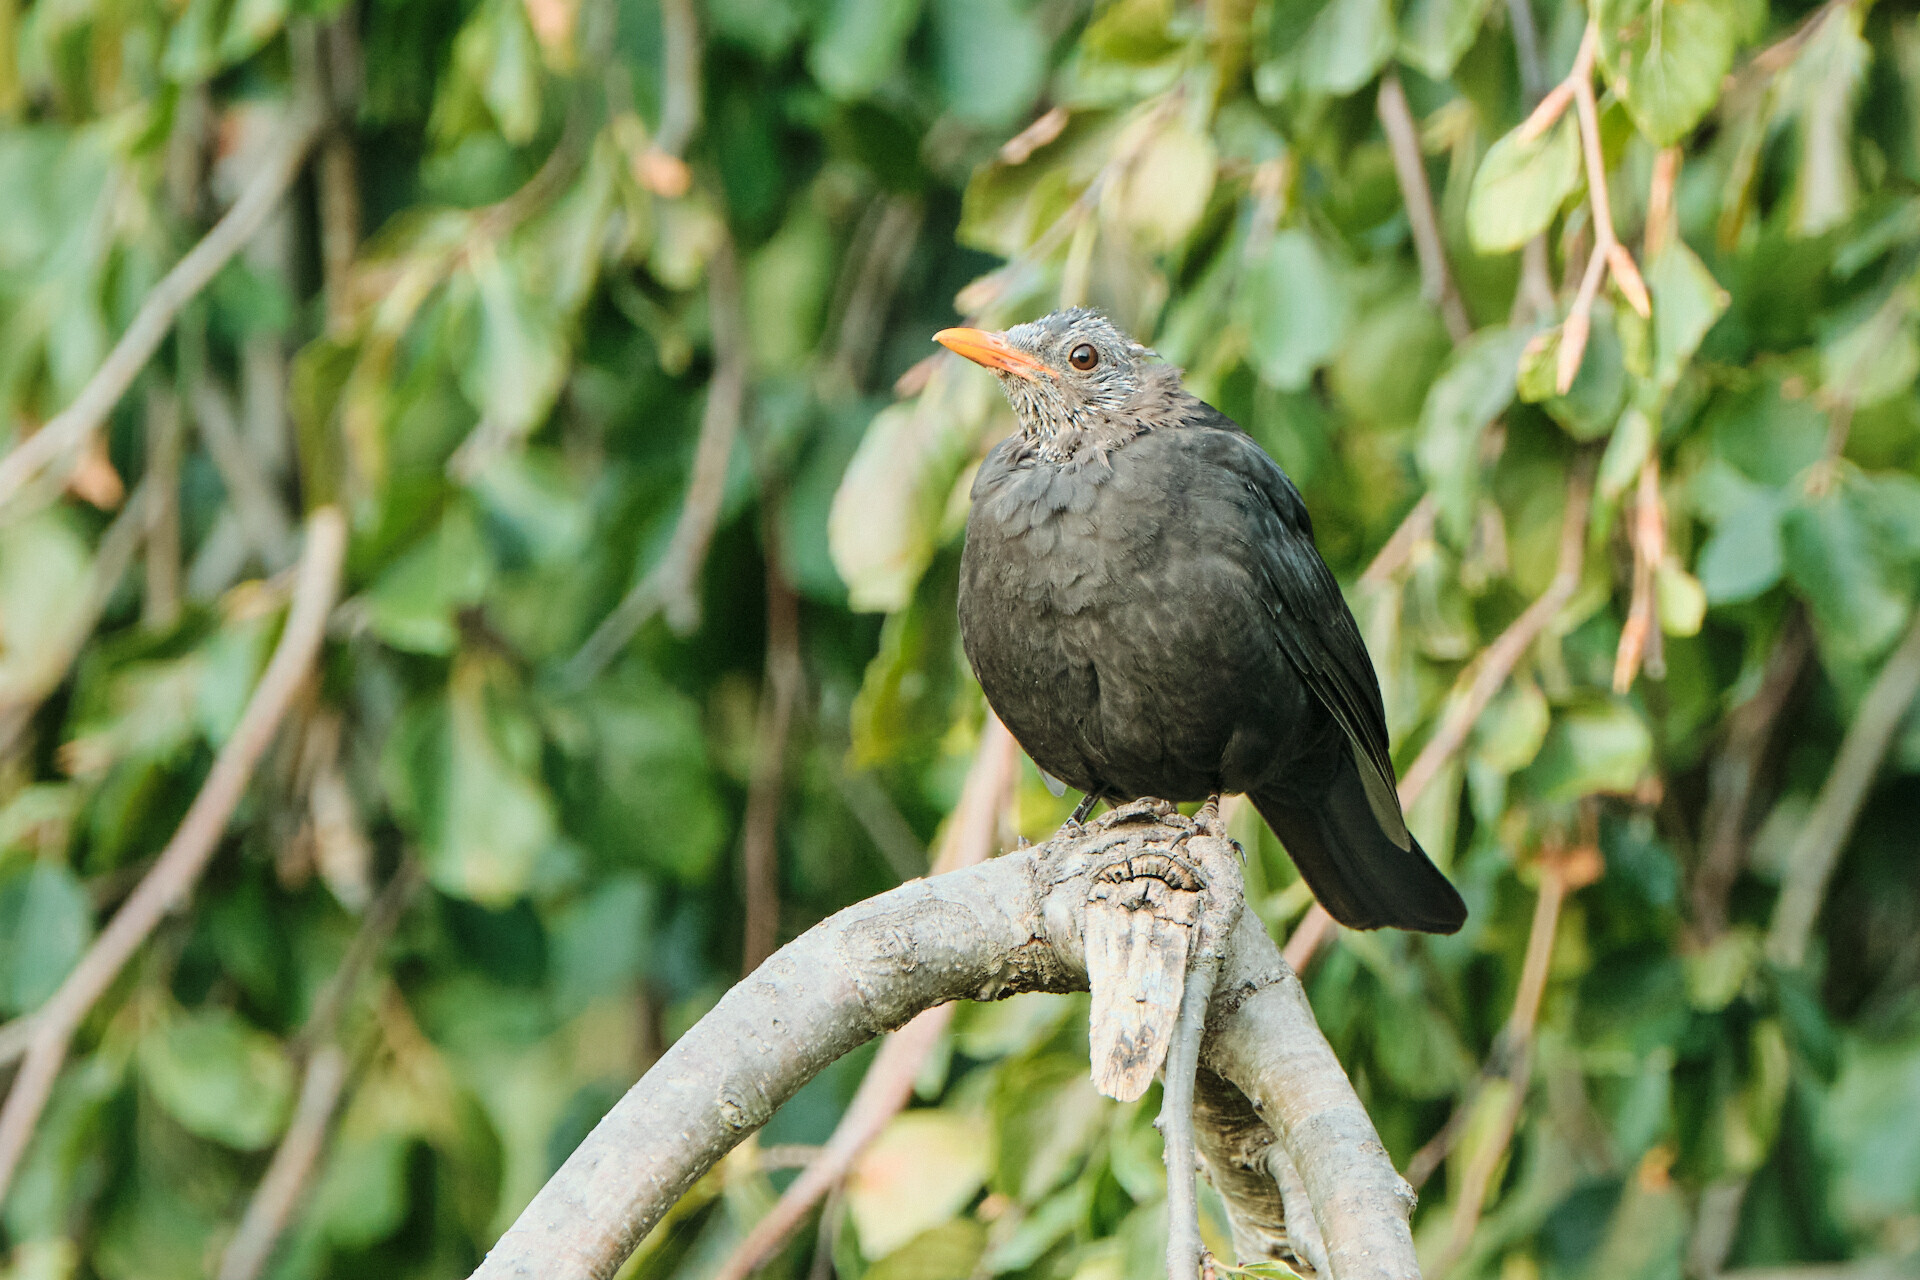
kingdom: Animalia
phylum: Chordata
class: Aves
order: Passeriformes
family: Turdidae
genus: Turdus
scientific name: Turdus merula
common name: Common blackbird
